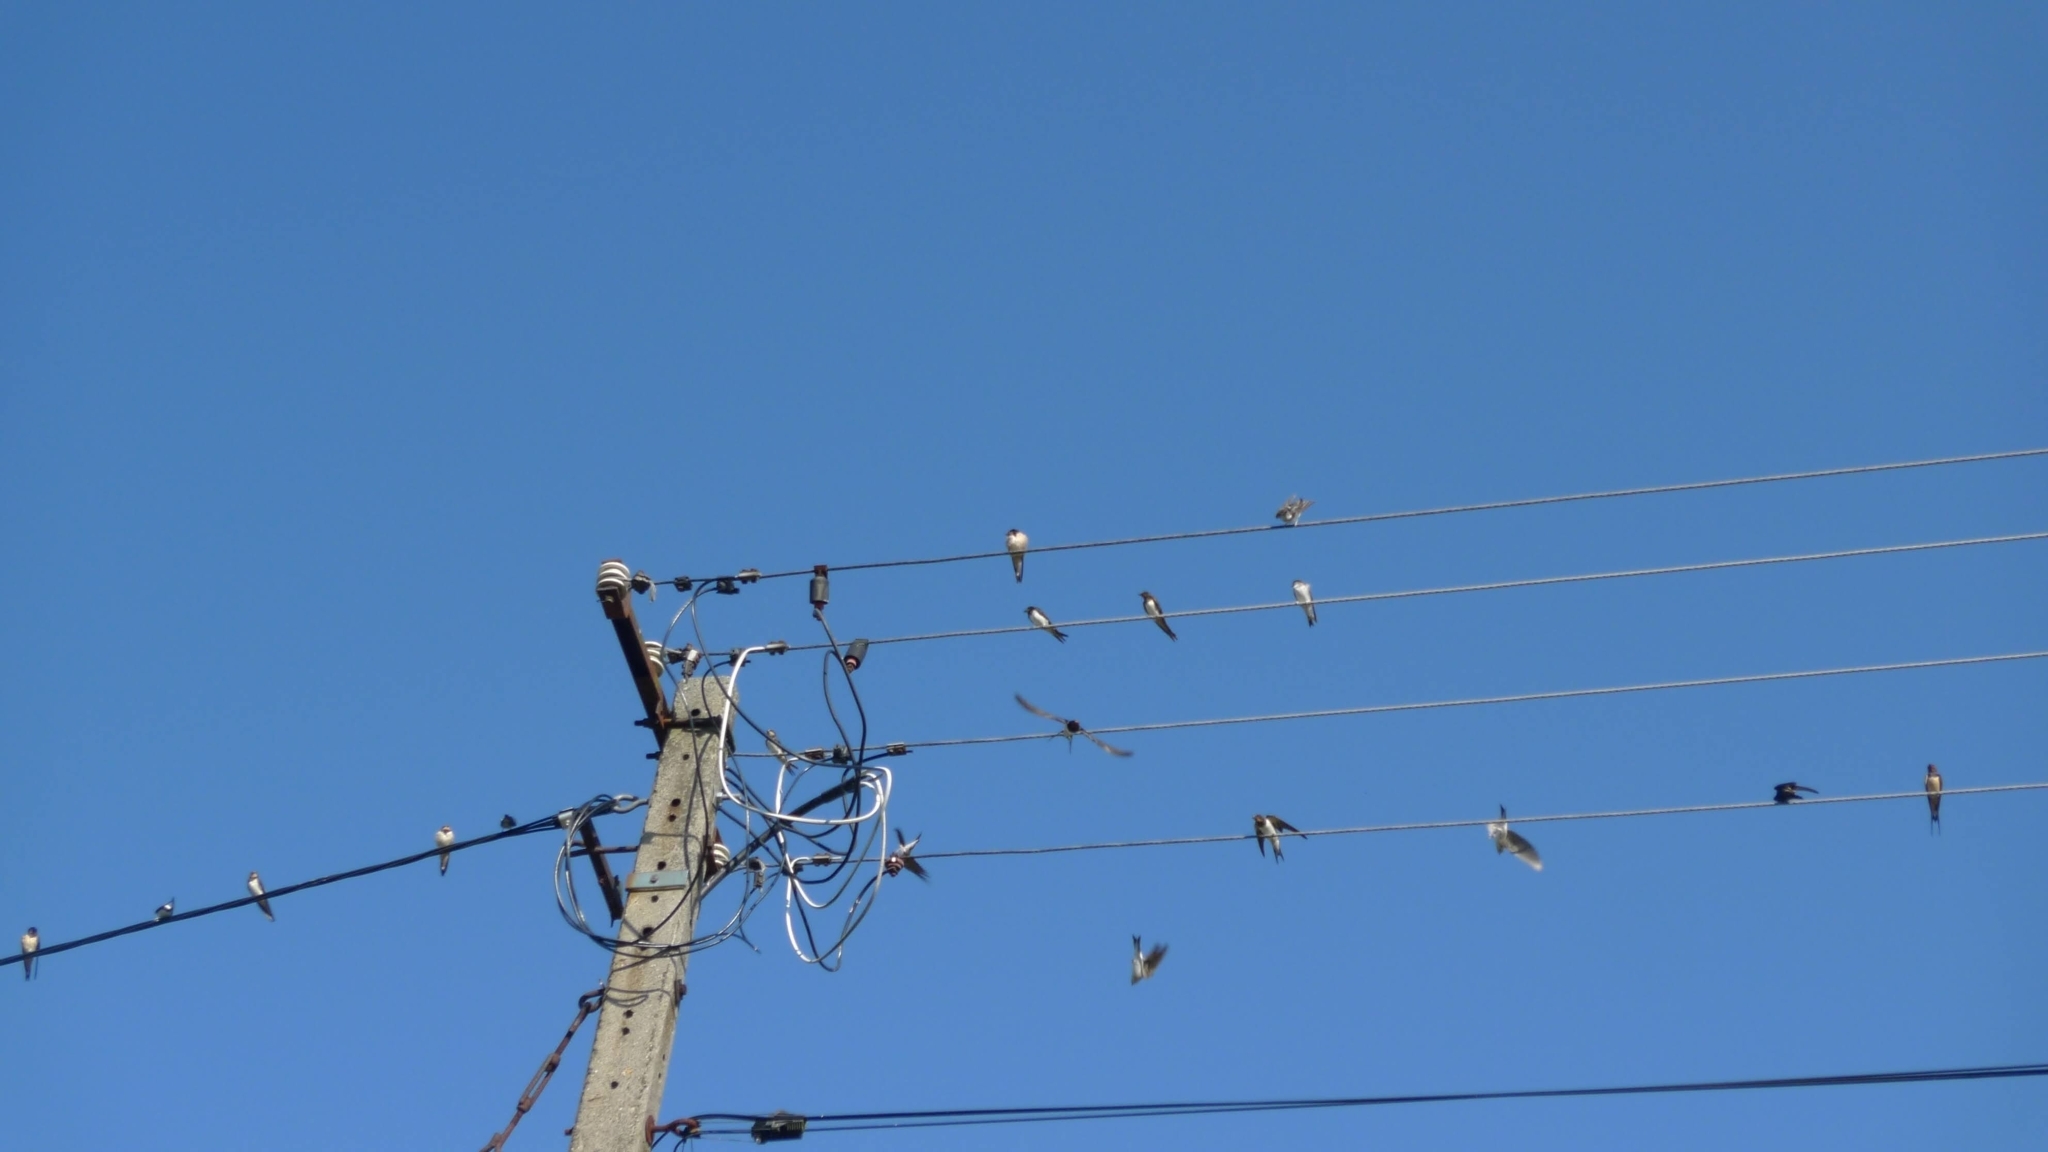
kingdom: Animalia
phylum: Chordata
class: Aves
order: Passeriformes
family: Hirundinidae
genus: Delichon
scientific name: Delichon urbicum
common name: Common house martin
